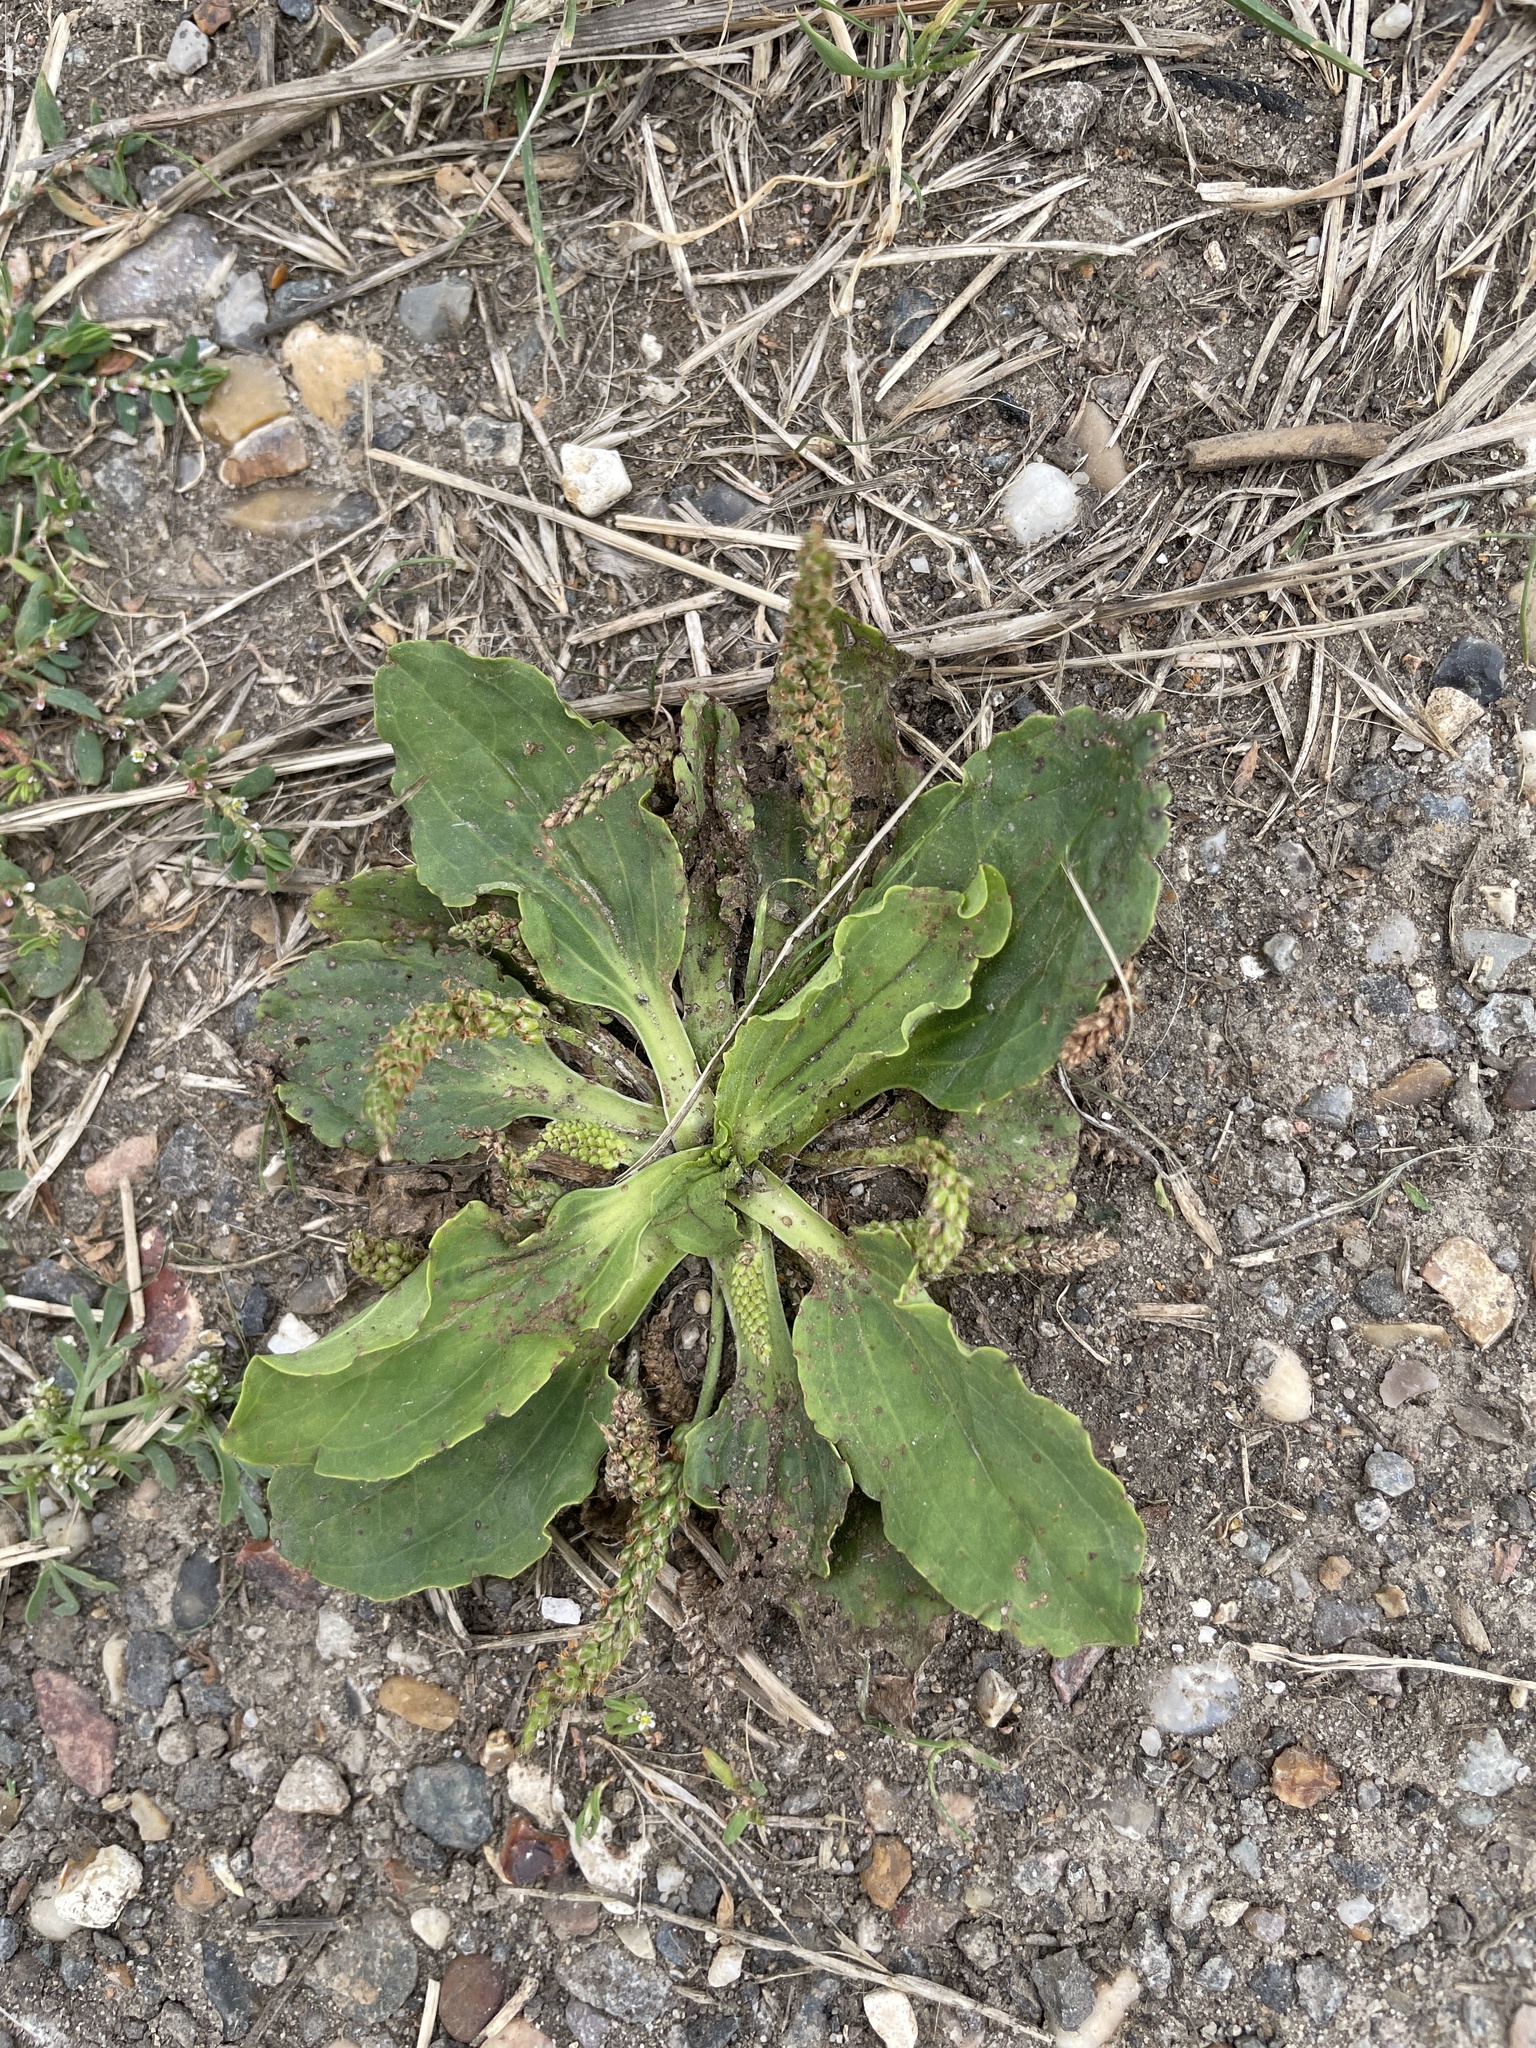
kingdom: Plantae
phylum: Tracheophyta
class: Magnoliopsida
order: Lamiales
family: Plantaginaceae
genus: Plantago
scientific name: Plantago major
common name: Common plantain
